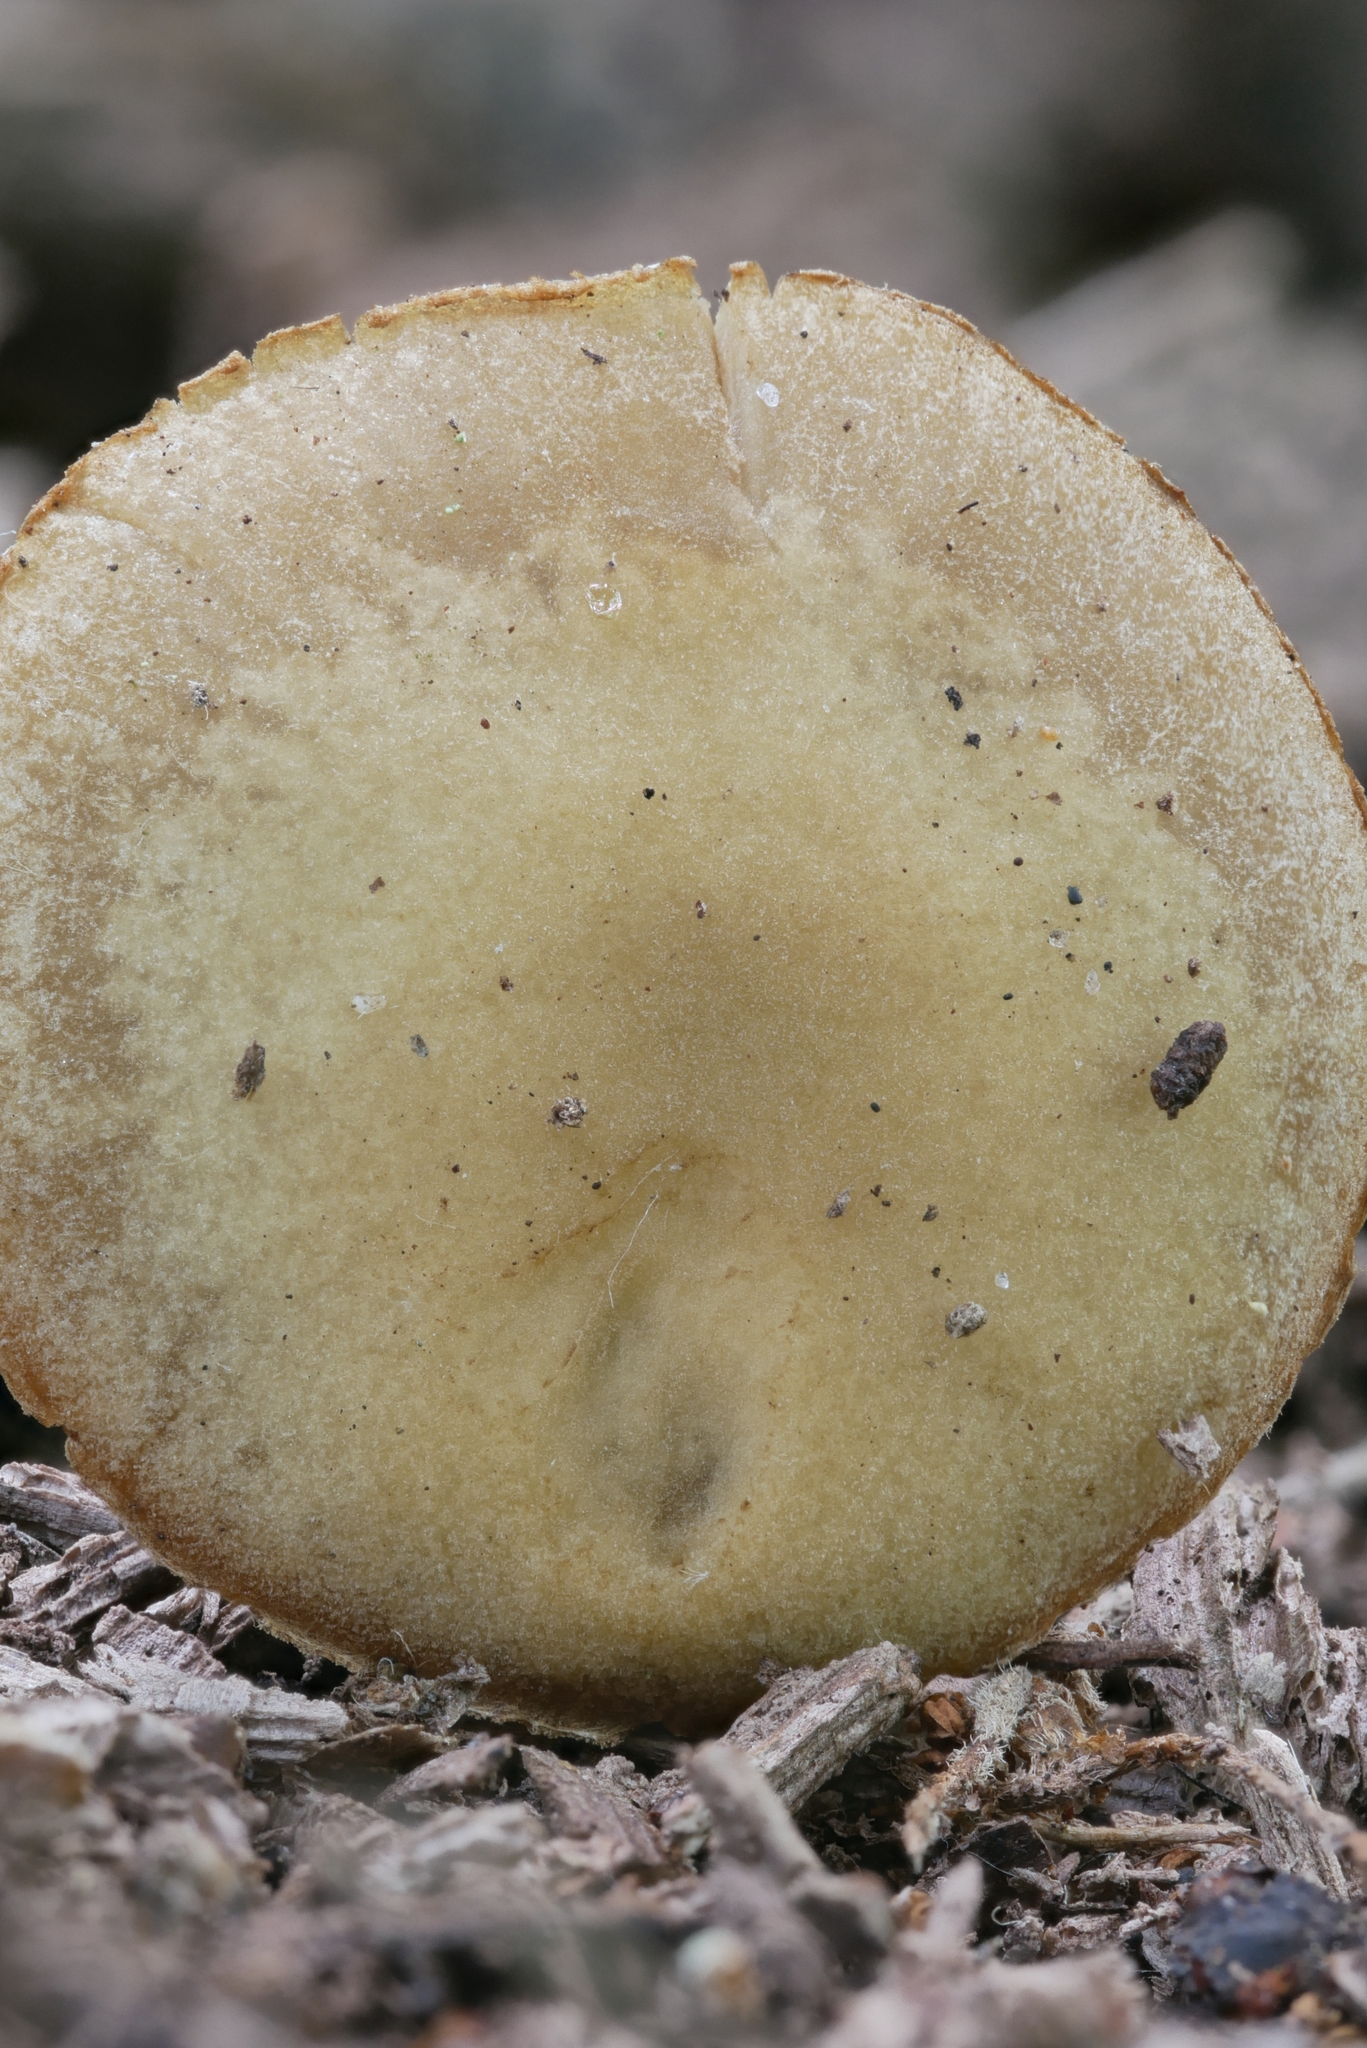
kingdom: Fungi
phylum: Basidiomycota
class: Agaricomycetes
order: Agaricales
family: Crepidotaceae
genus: Simocybe
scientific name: Simocybe serrulata
